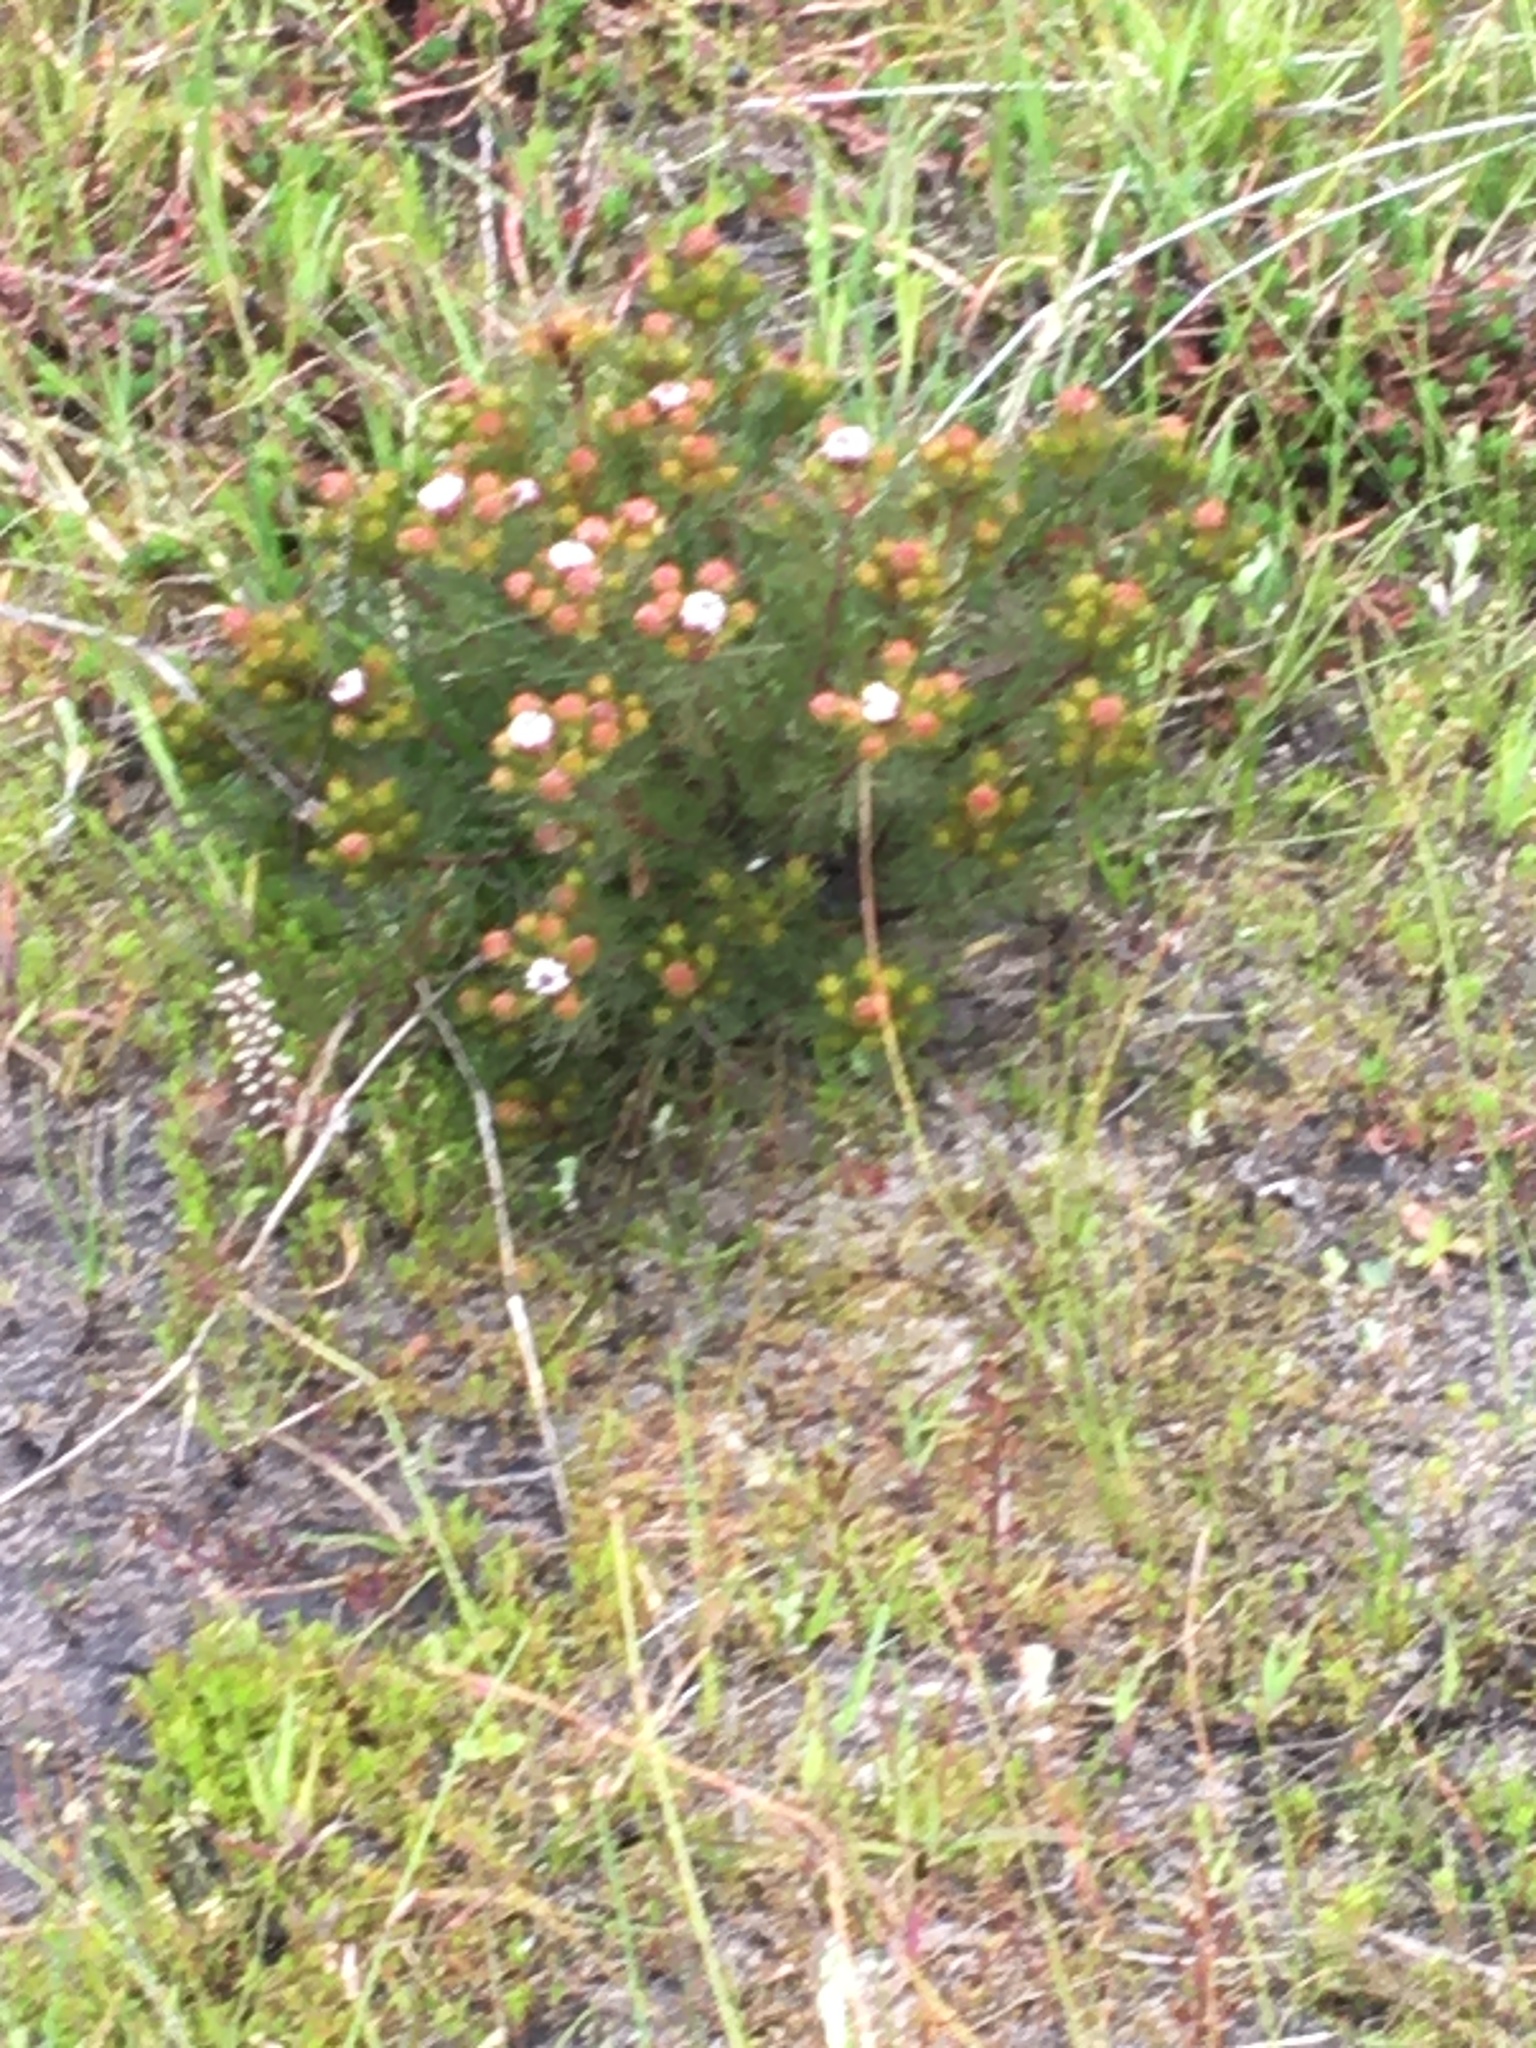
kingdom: Plantae
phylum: Tracheophyta
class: Magnoliopsida
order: Proteales
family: Proteaceae
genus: Serruria
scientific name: Serruria aemula
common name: Strawberry spiderhead
